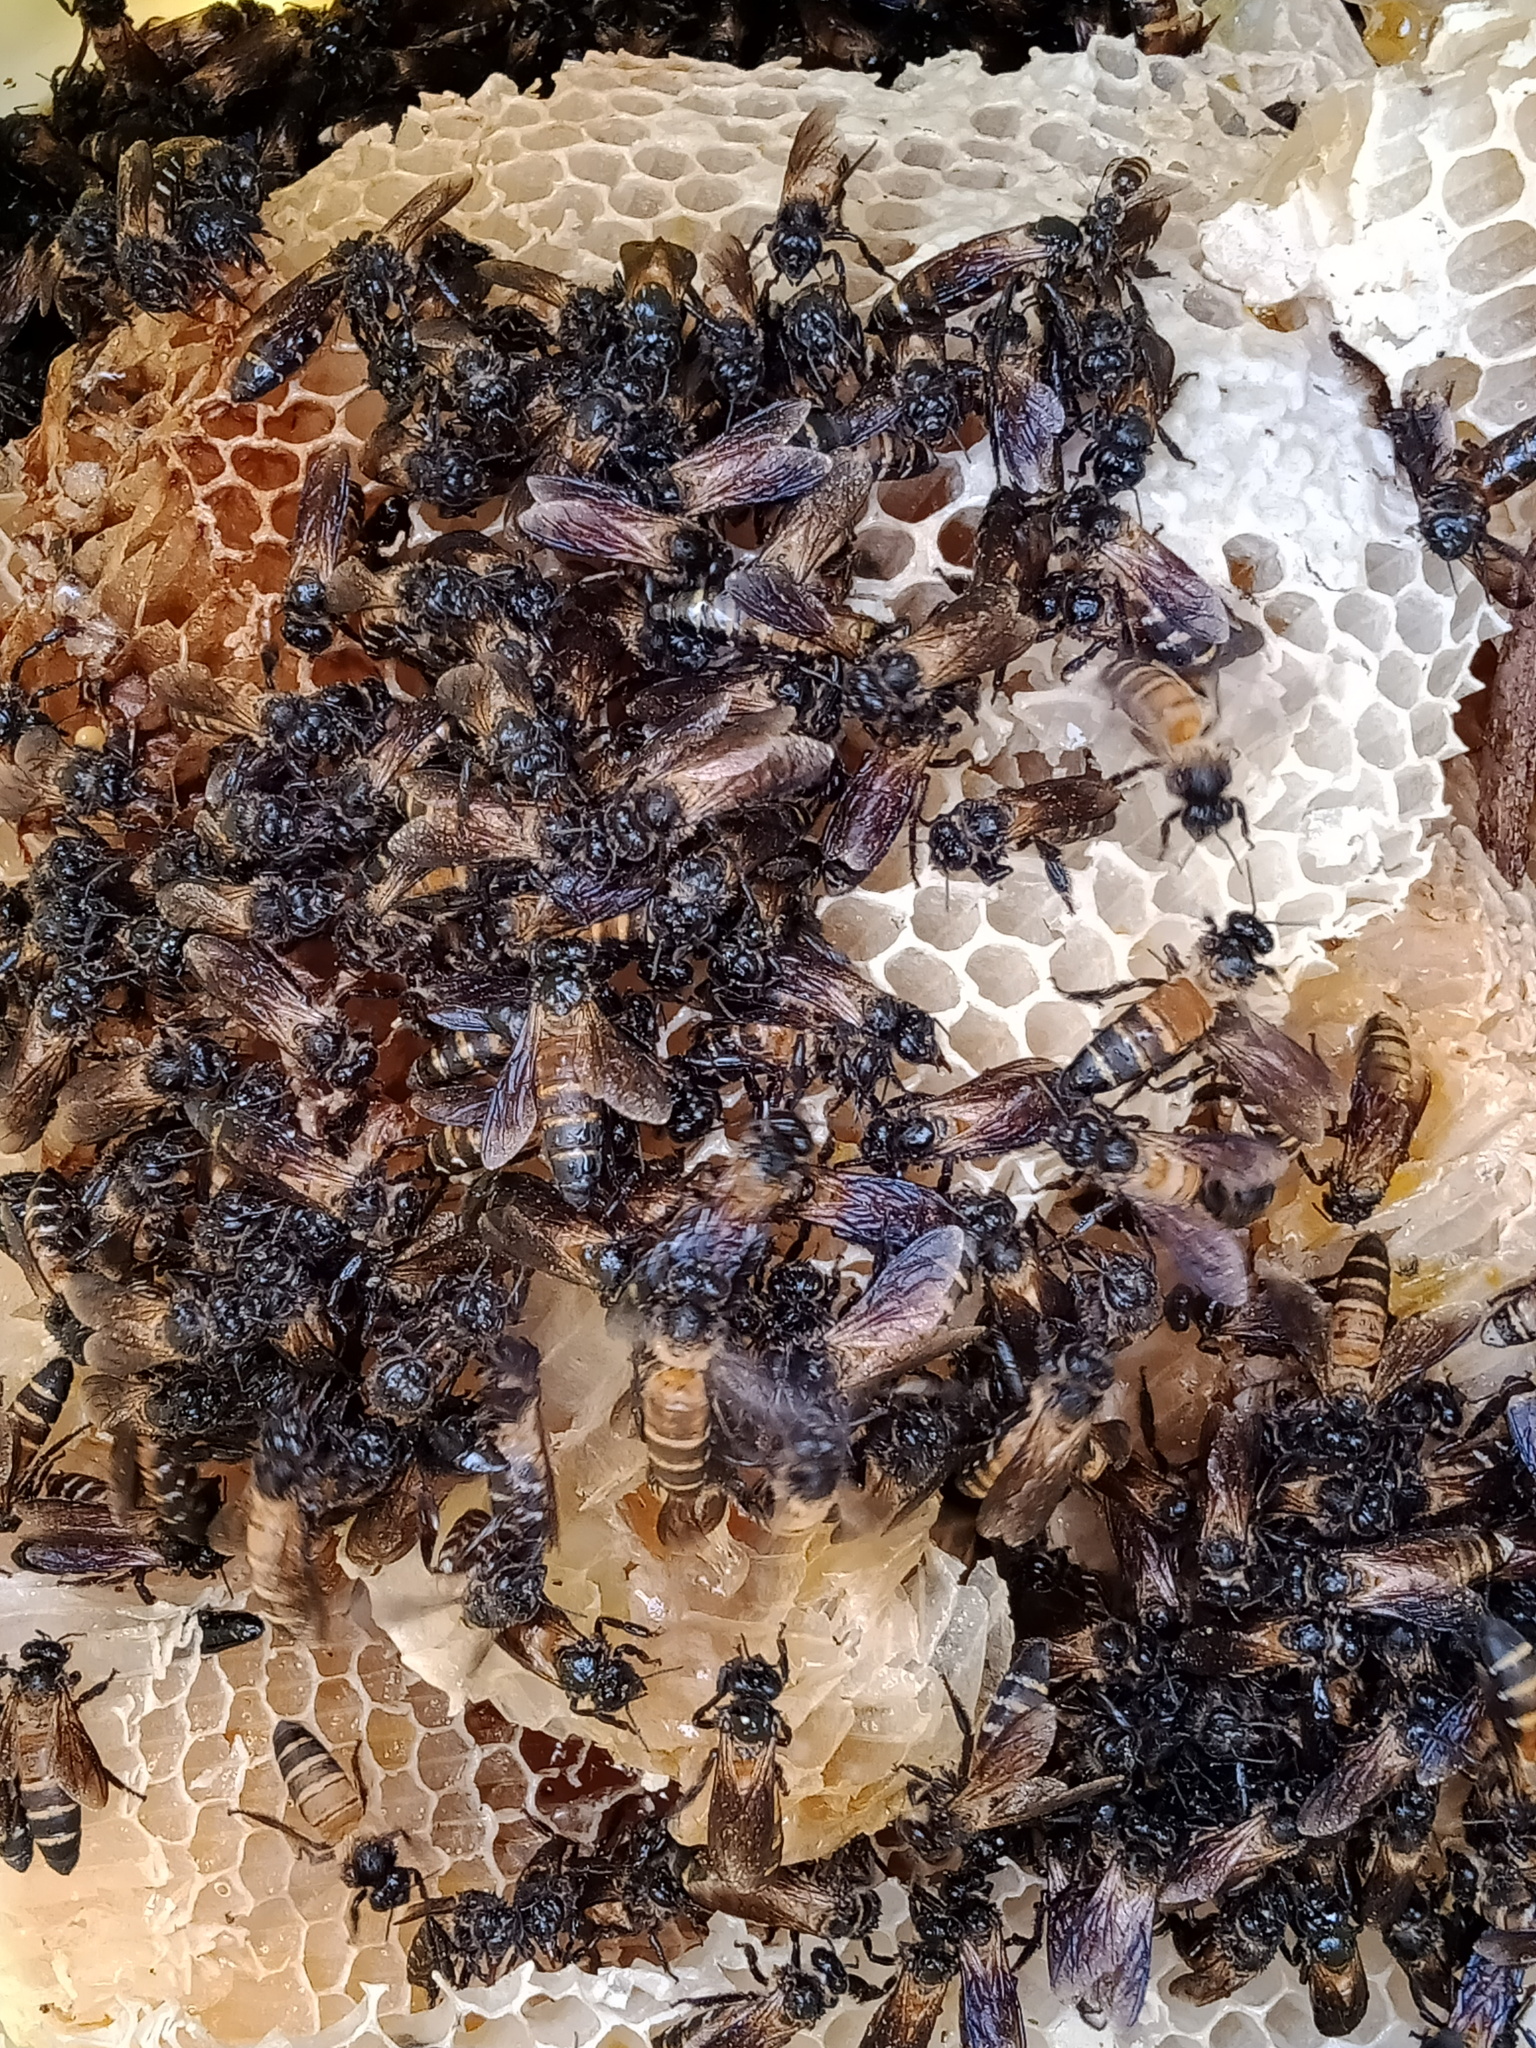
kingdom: Animalia
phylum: Arthropoda
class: Insecta
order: Hymenoptera
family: Apidae
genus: Apis
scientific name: Apis dorsata
